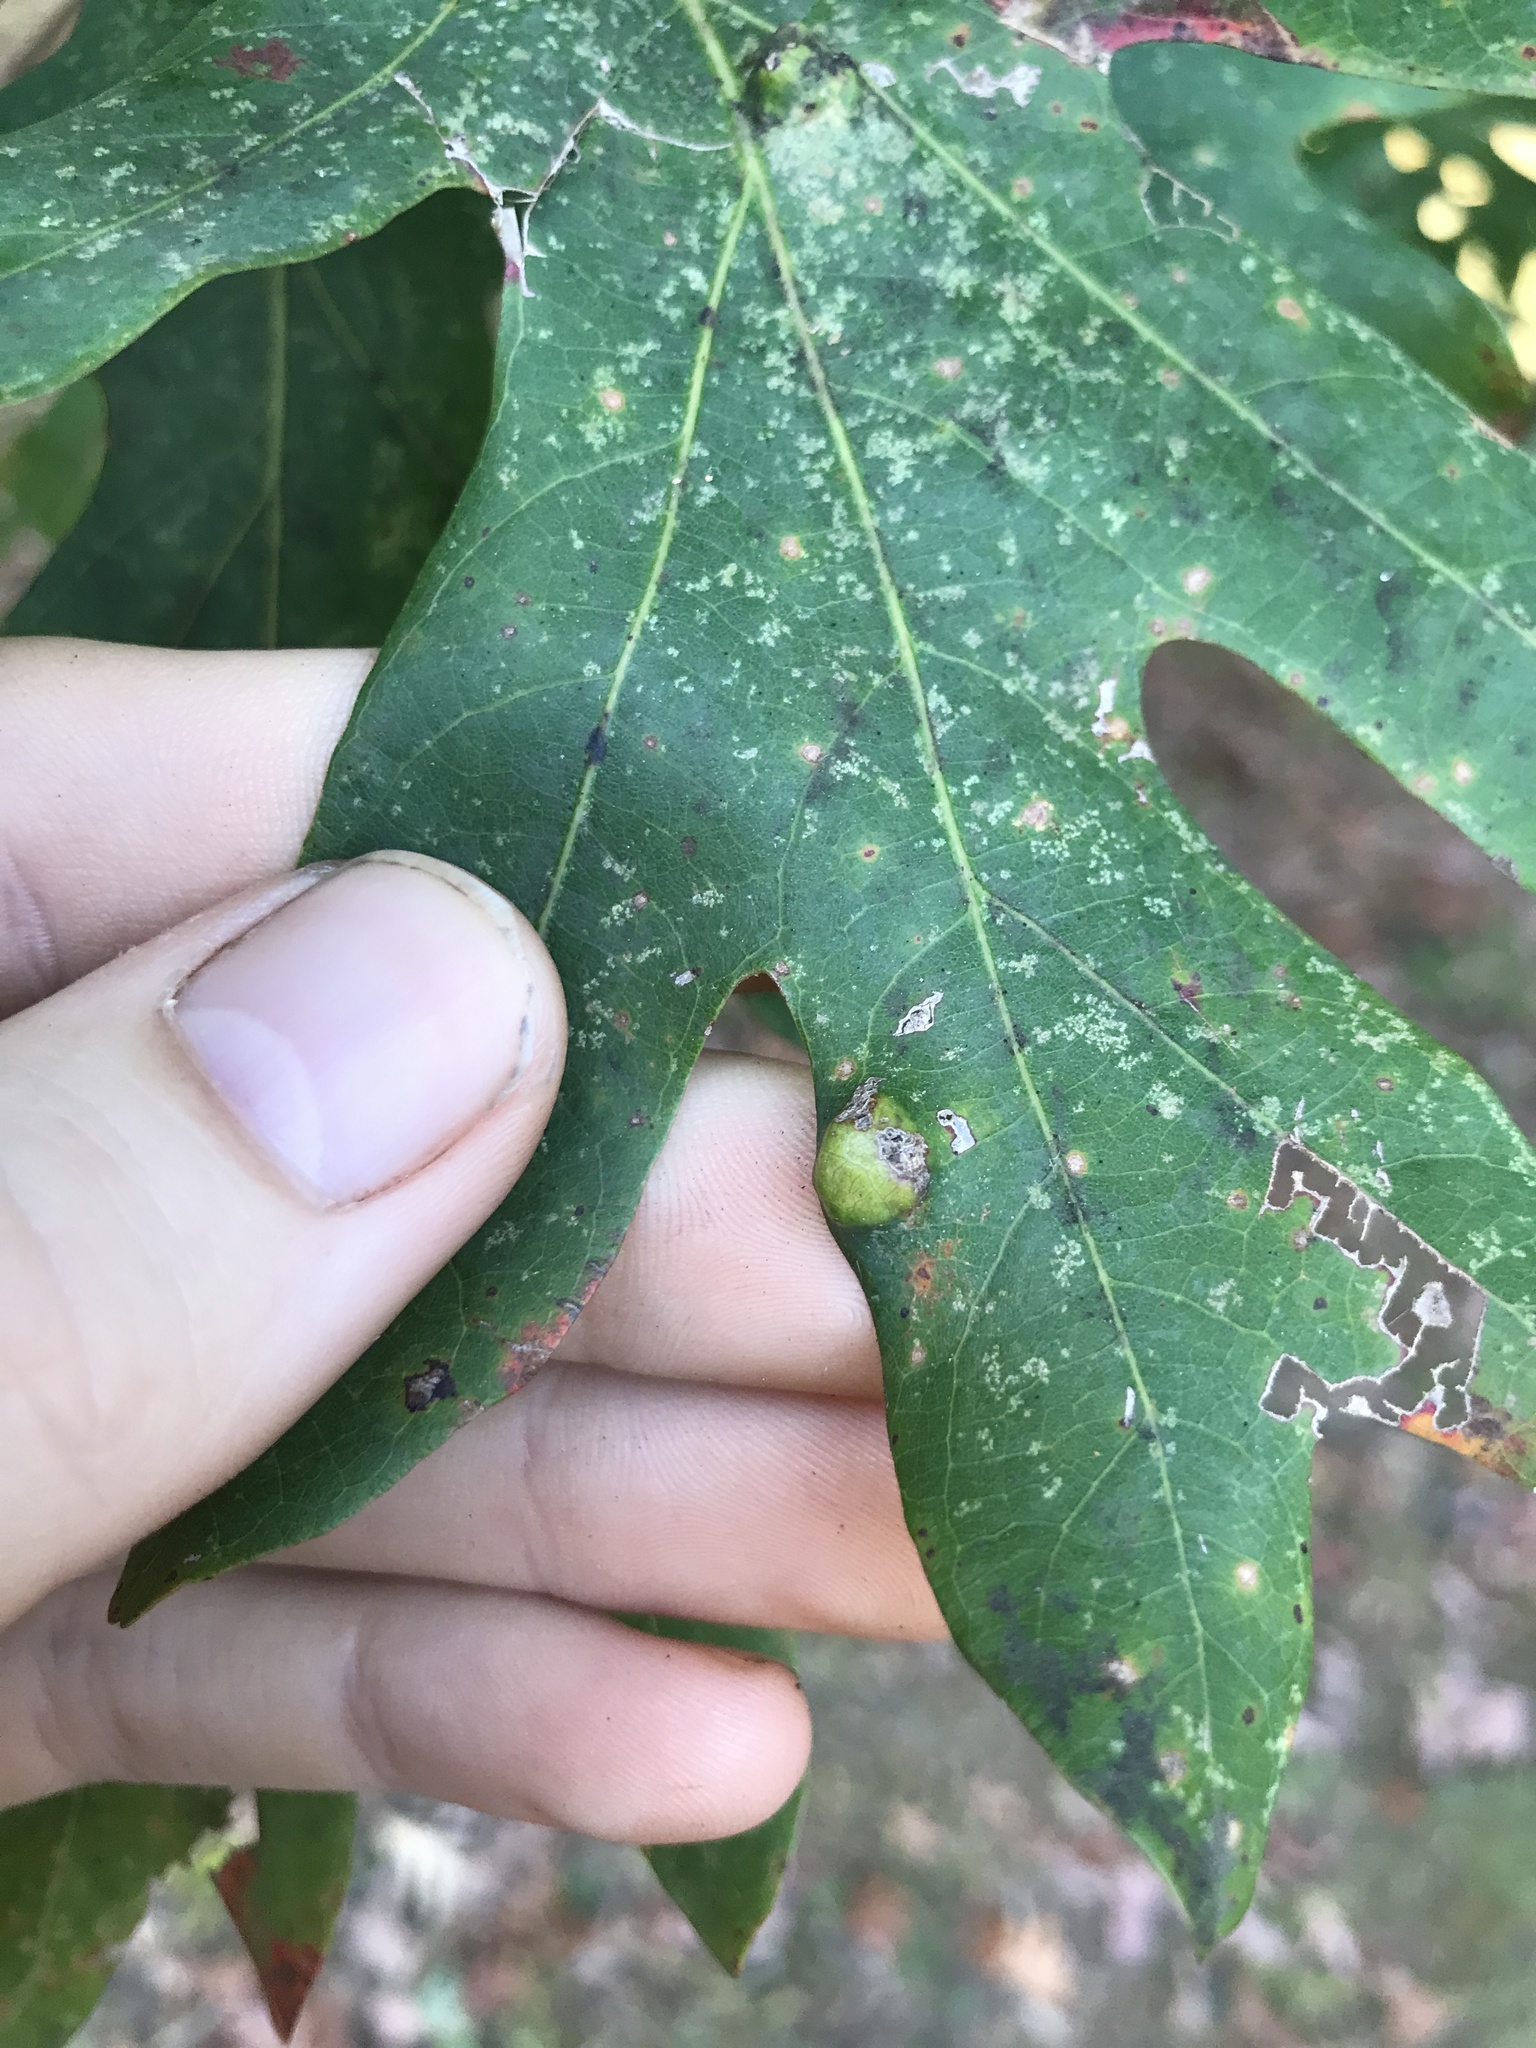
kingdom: Animalia
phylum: Arthropoda
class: Arachnida
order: Trombidiformes
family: Eriophyidae
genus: Aceria
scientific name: Aceria
